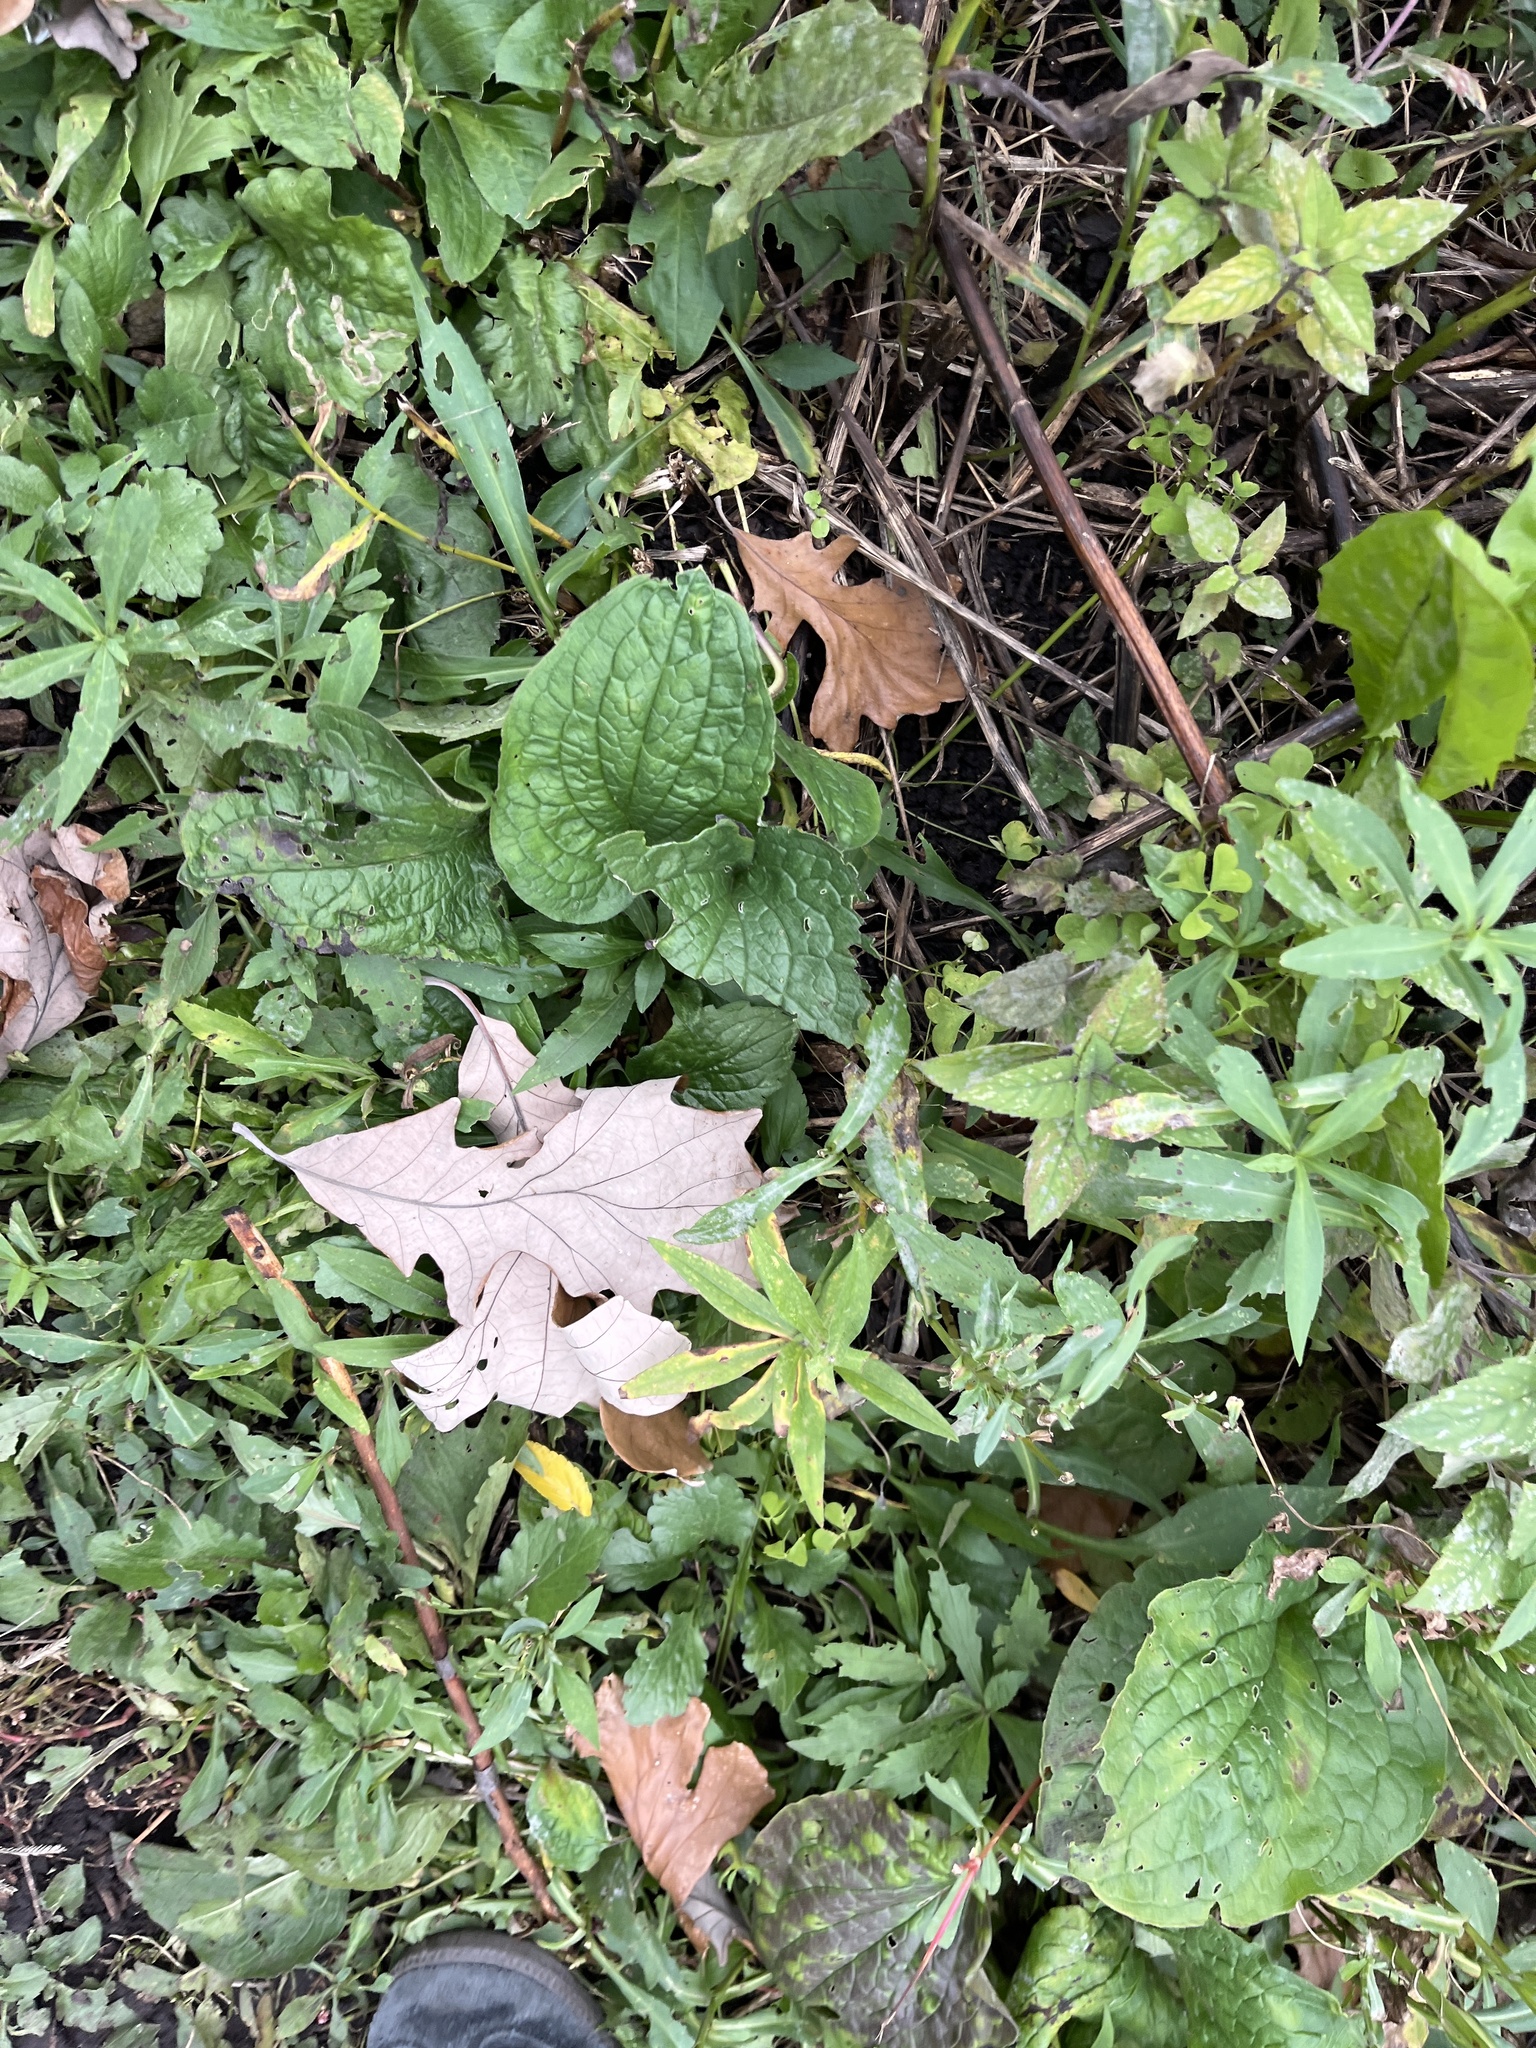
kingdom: Plantae
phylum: Tracheophyta
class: Magnoliopsida
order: Boraginales
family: Boraginaceae
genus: Hackelia
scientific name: Hackelia virginiana
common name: Beggar's-lice
